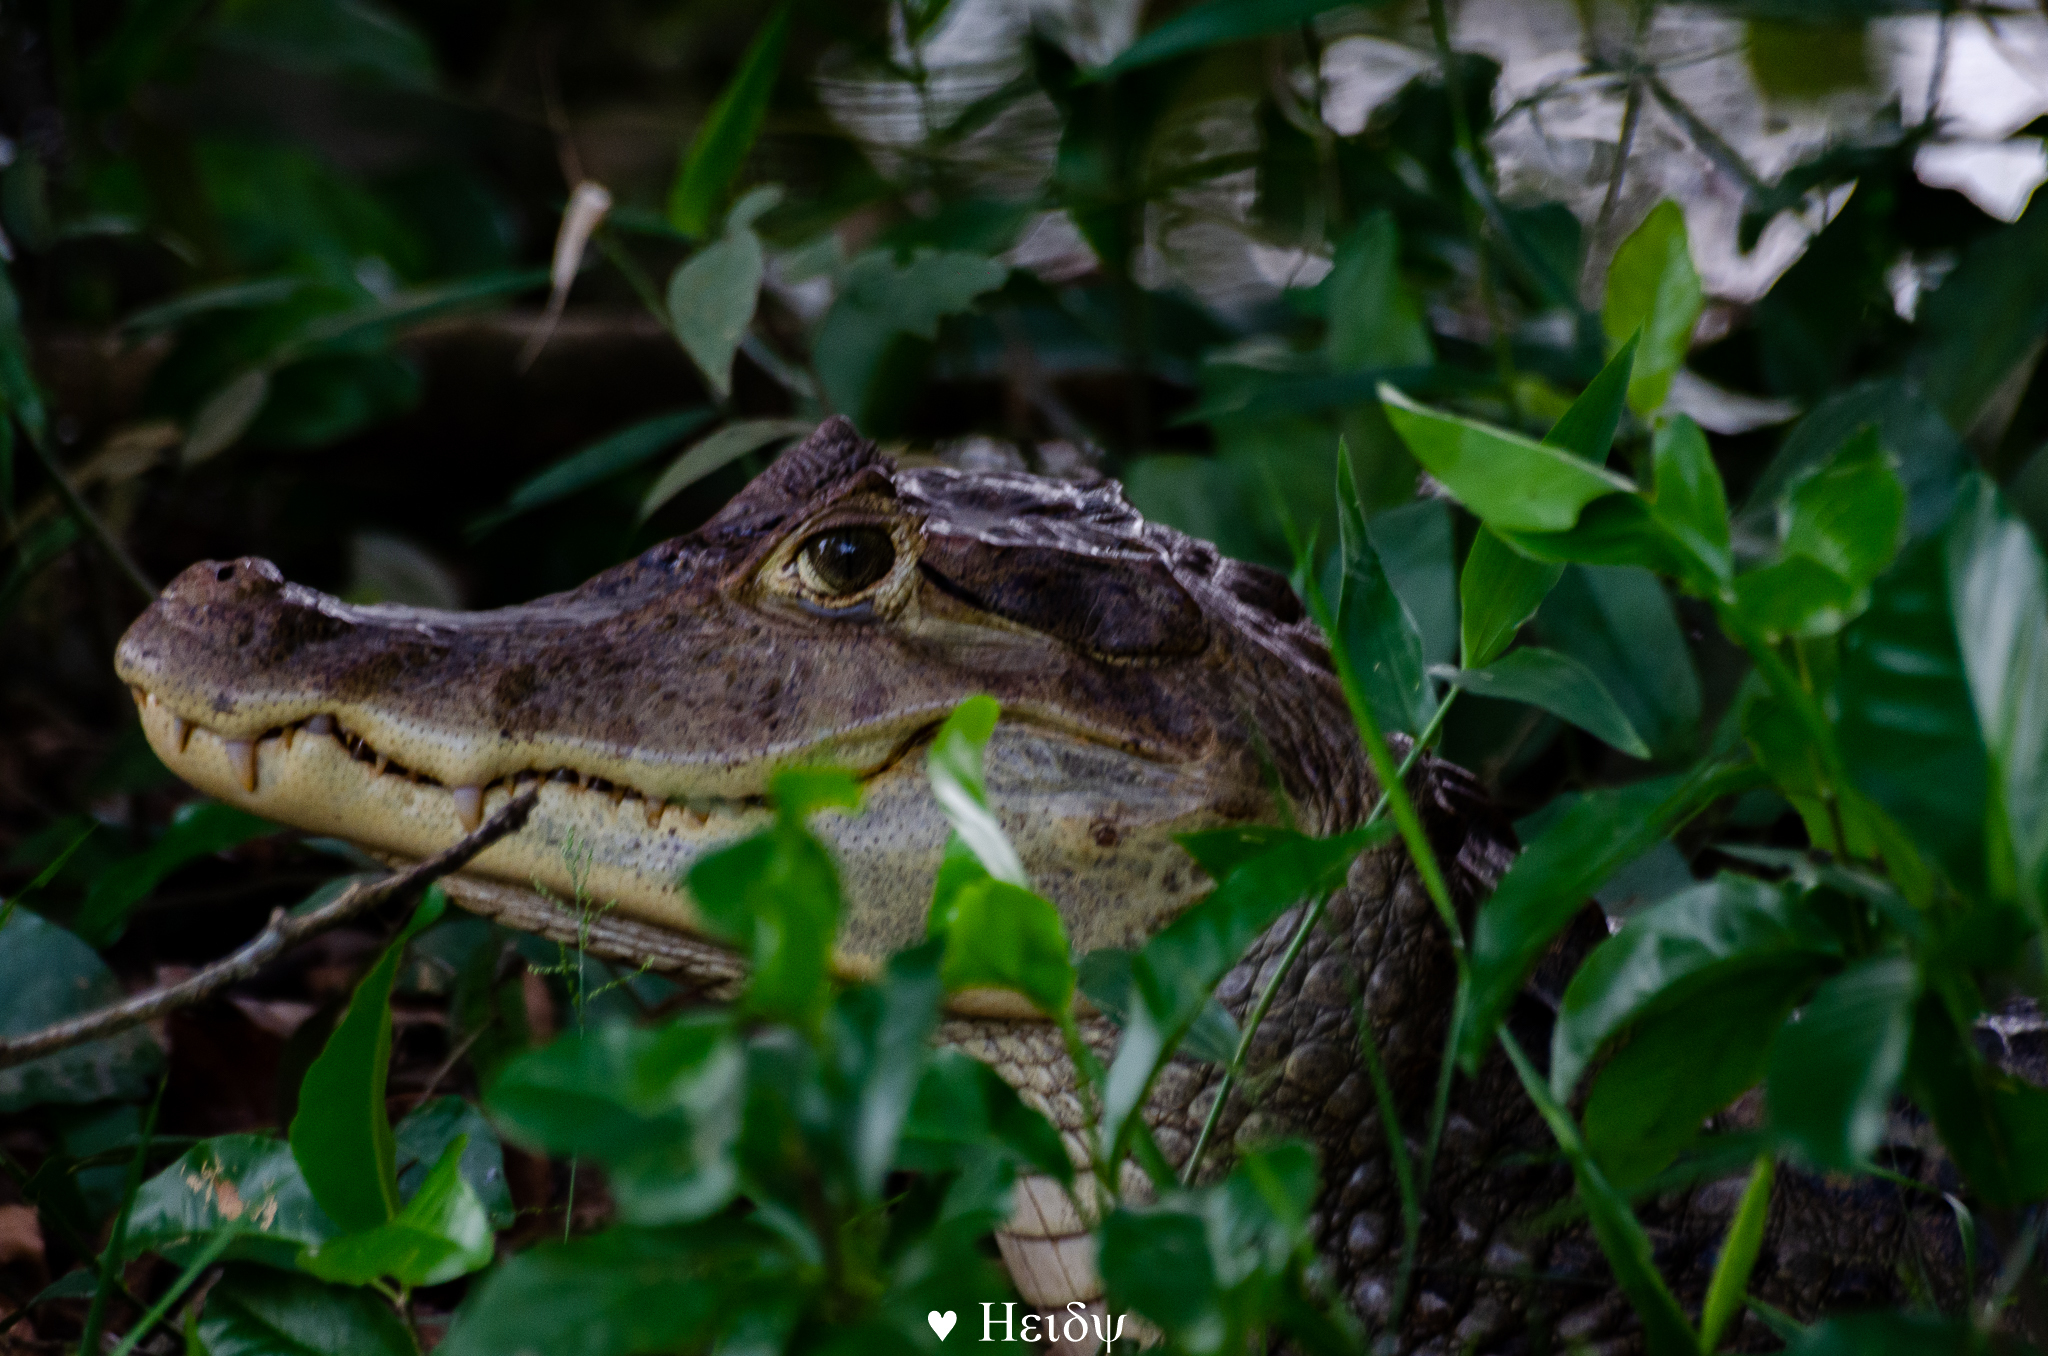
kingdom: Animalia
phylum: Chordata
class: Crocodylia
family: Alligatoridae
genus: Caiman
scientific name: Caiman crocodilus
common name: Common caiman
